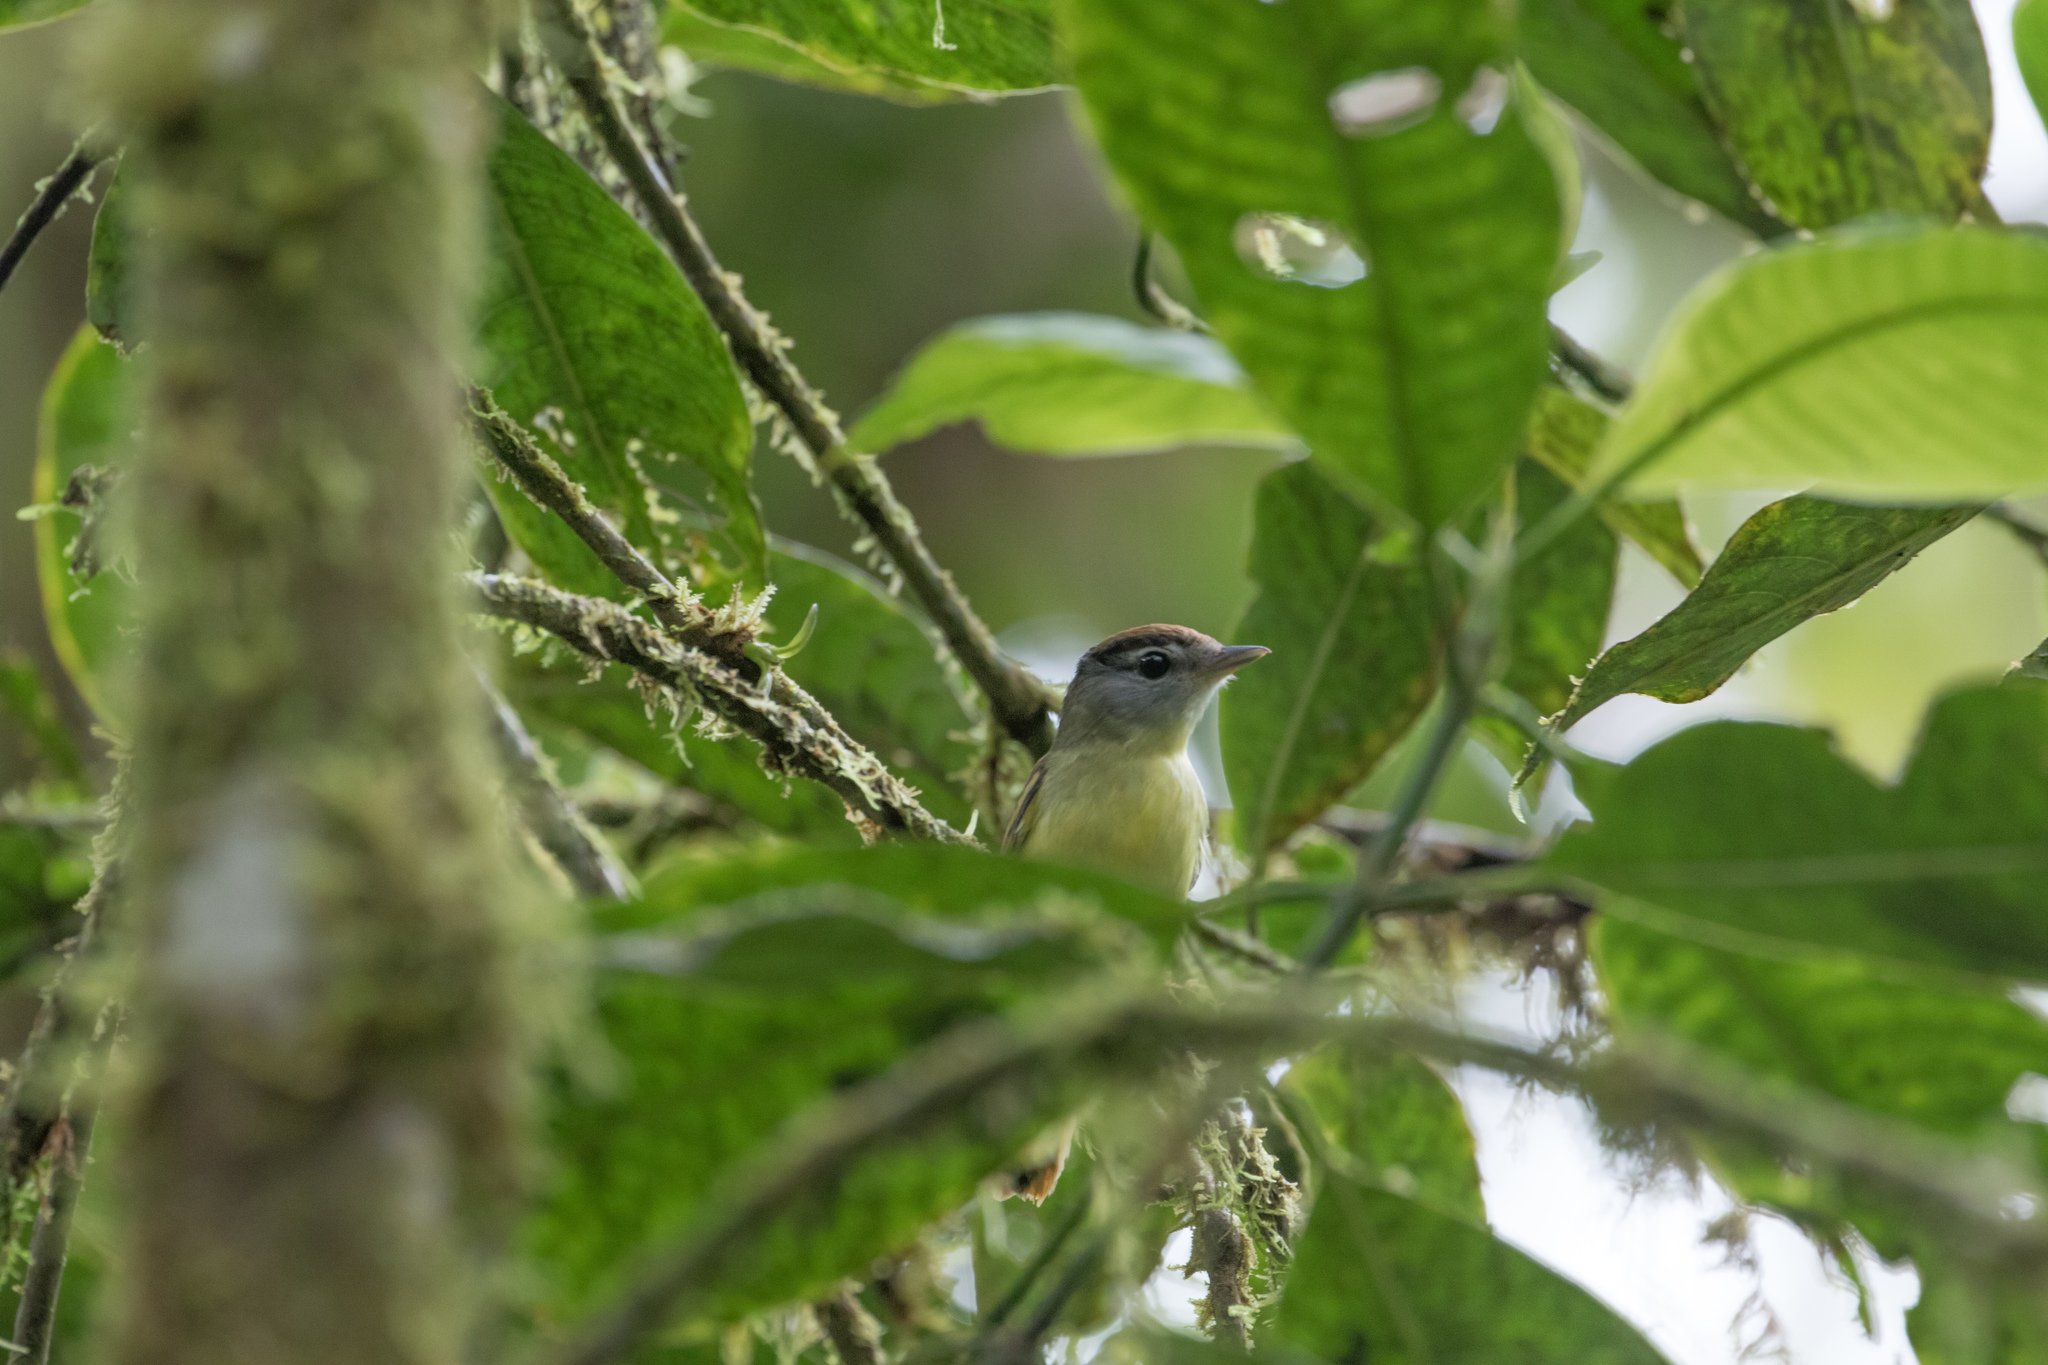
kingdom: Animalia
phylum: Chordata
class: Aves
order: Passeriformes
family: Cotingidae
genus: Pachyramphus
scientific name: Pachyramphus salvini
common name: Cryptic becard
